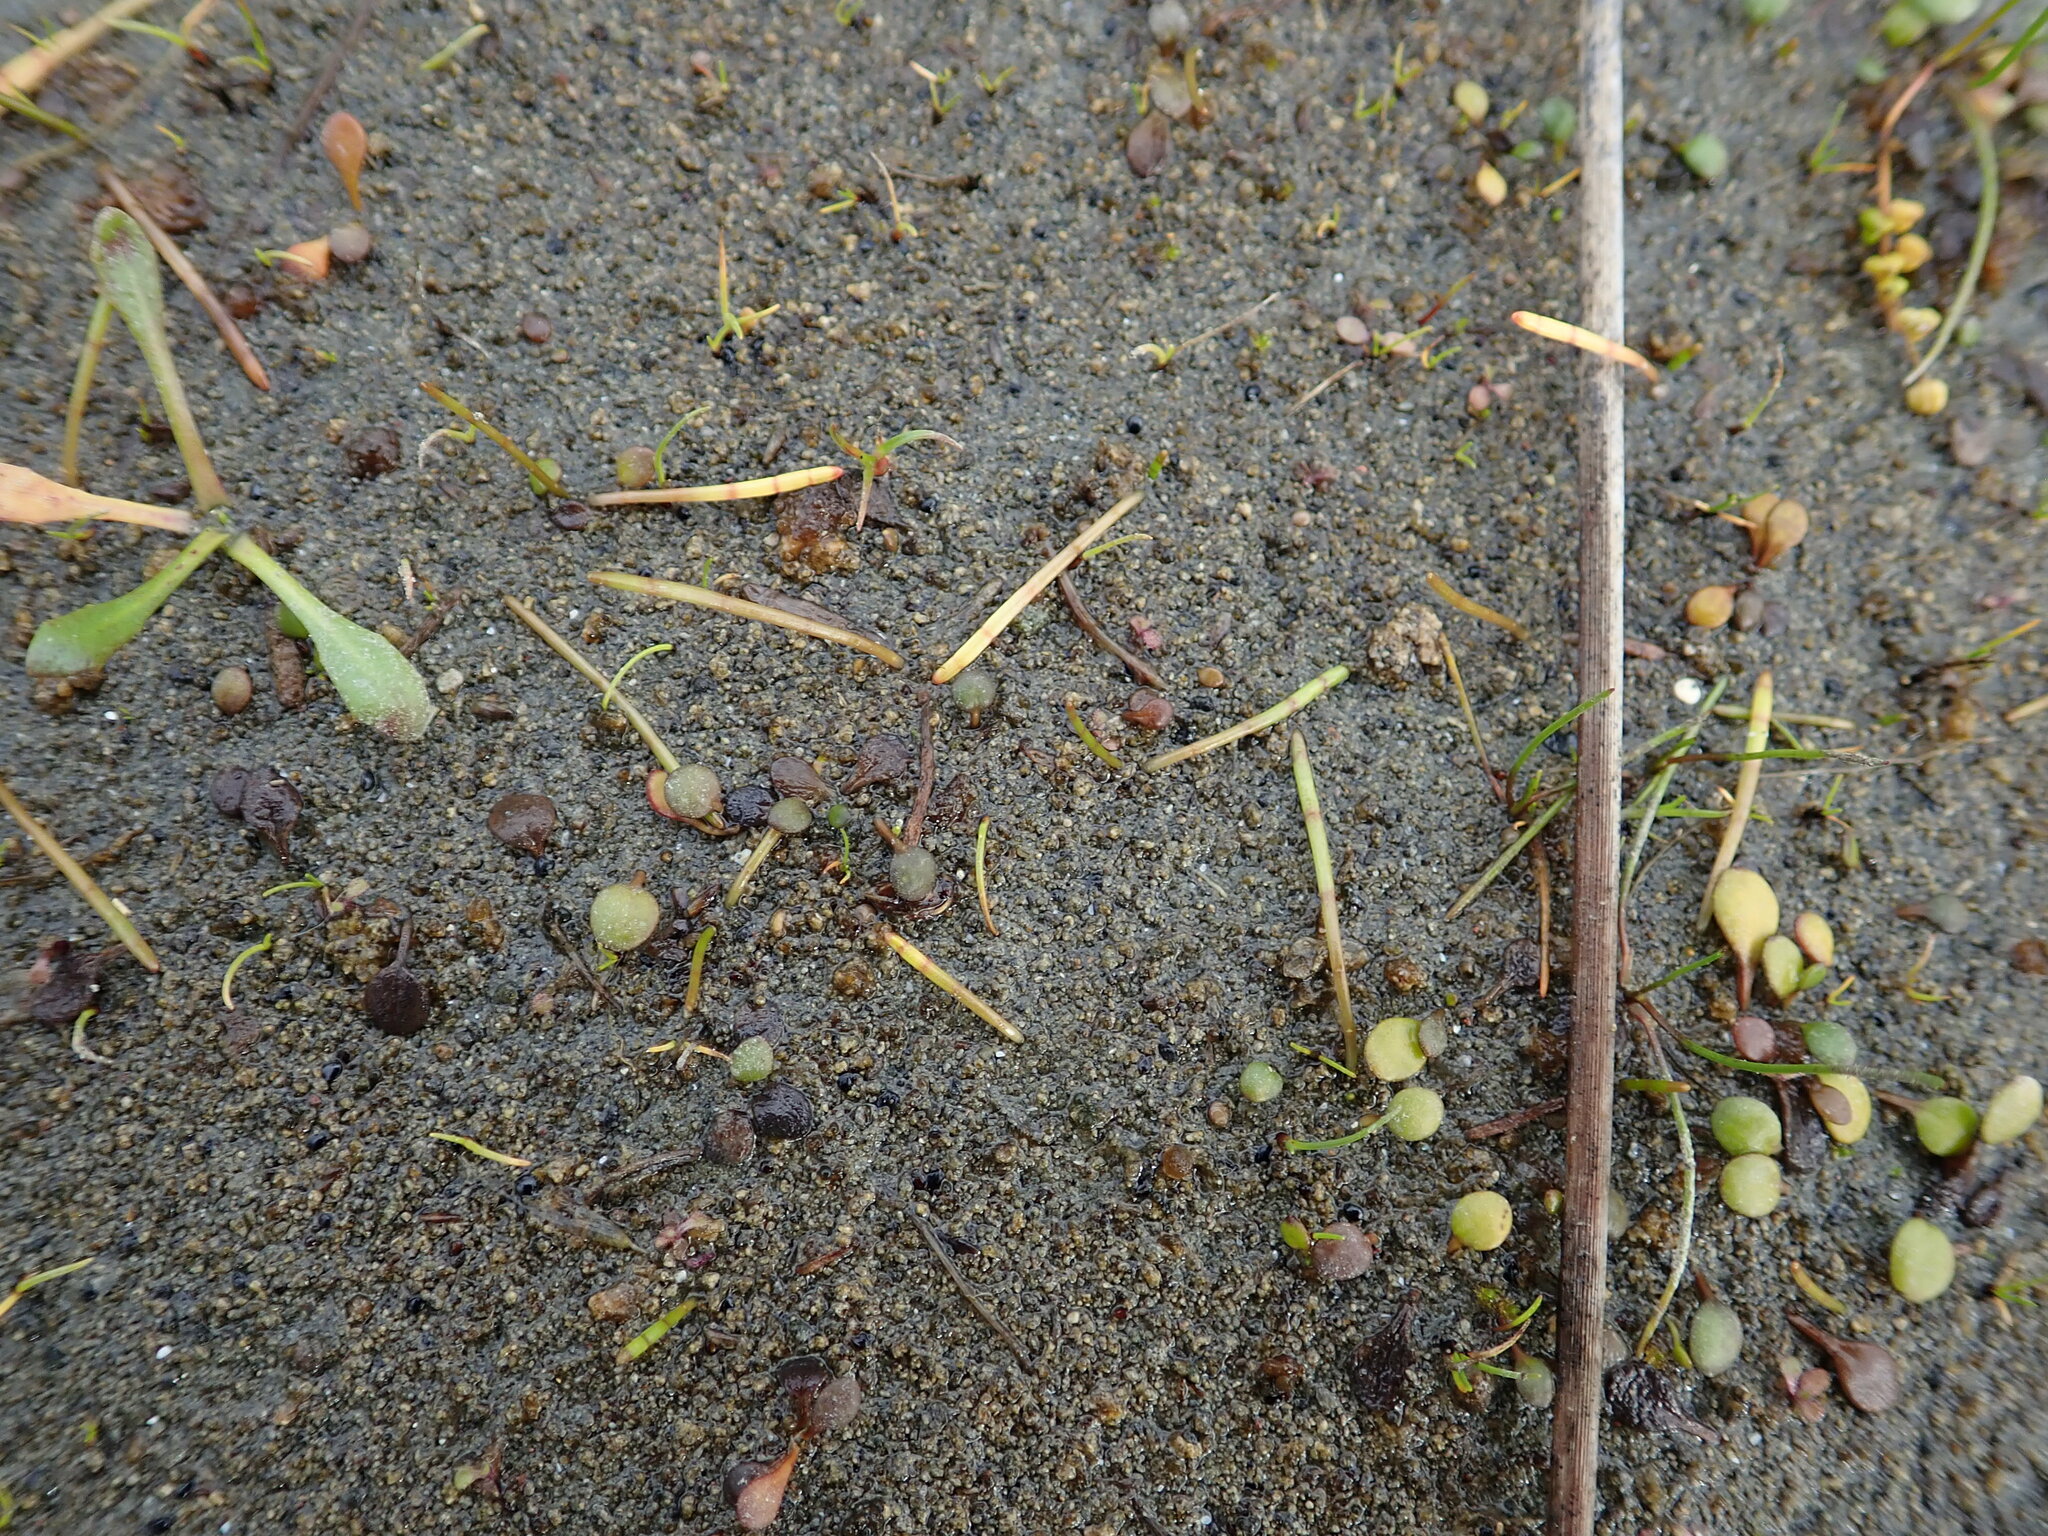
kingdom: Plantae
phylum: Tracheophyta
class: Magnoliopsida
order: Apiales
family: Apiaceae
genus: Lilaeopsis
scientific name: Lilaeopsis novae-zelandiae
